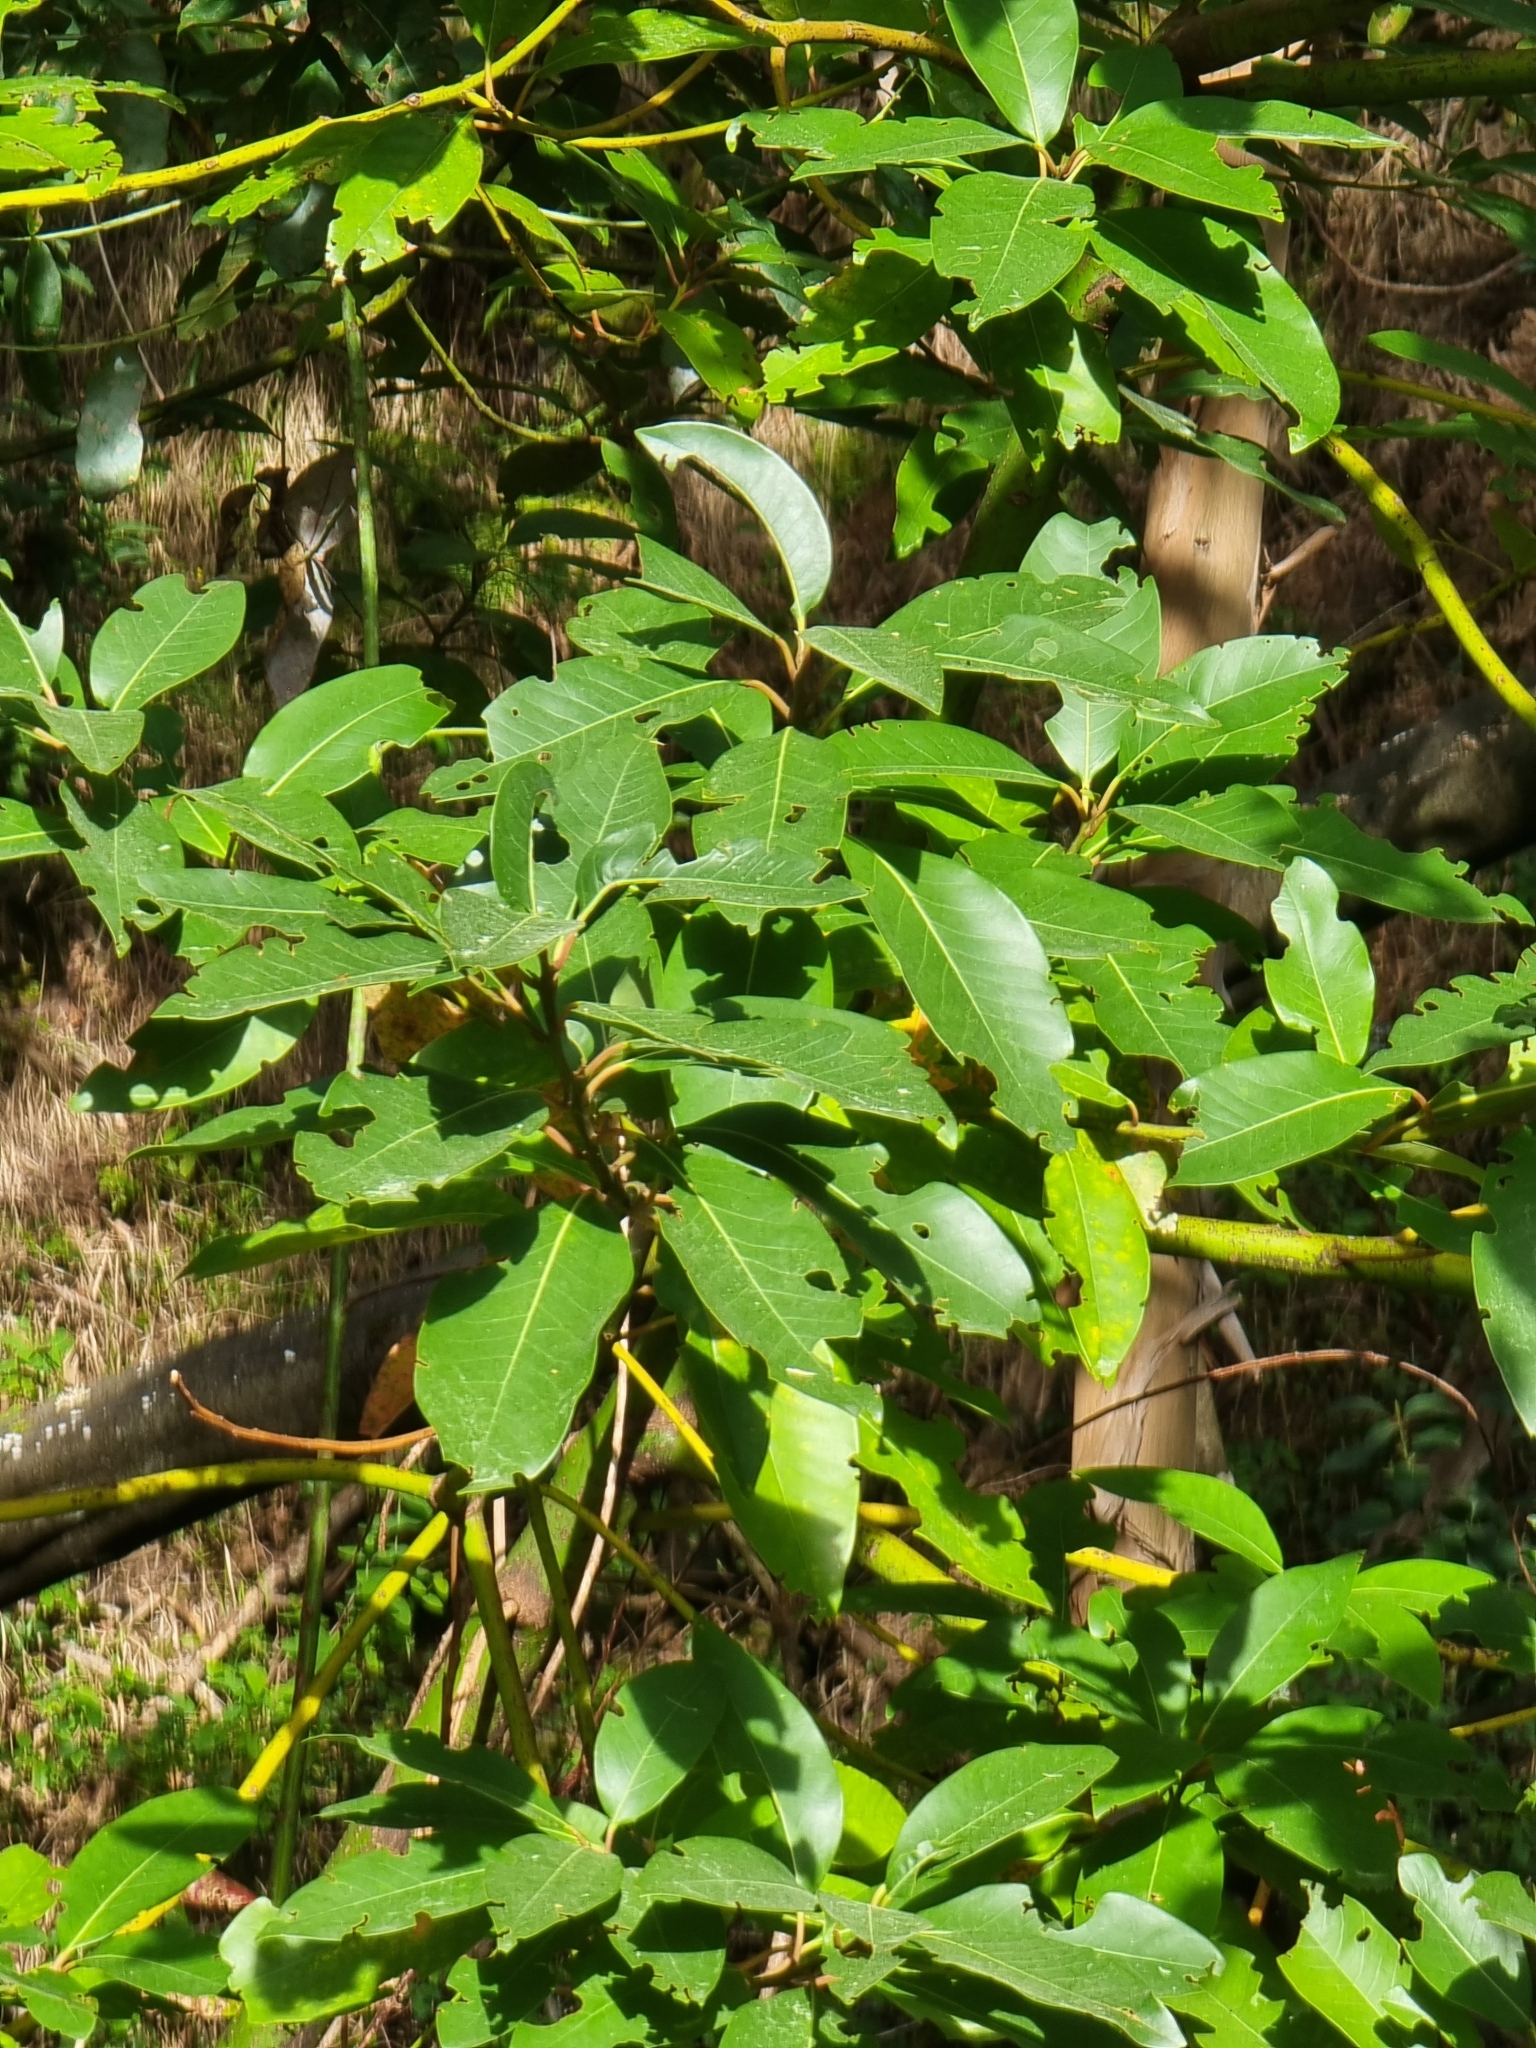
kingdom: Plantae
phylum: Tracheophyta
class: Magnoliopsida
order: Laurales
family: Lauraceae
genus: Persea
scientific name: Persea indica
